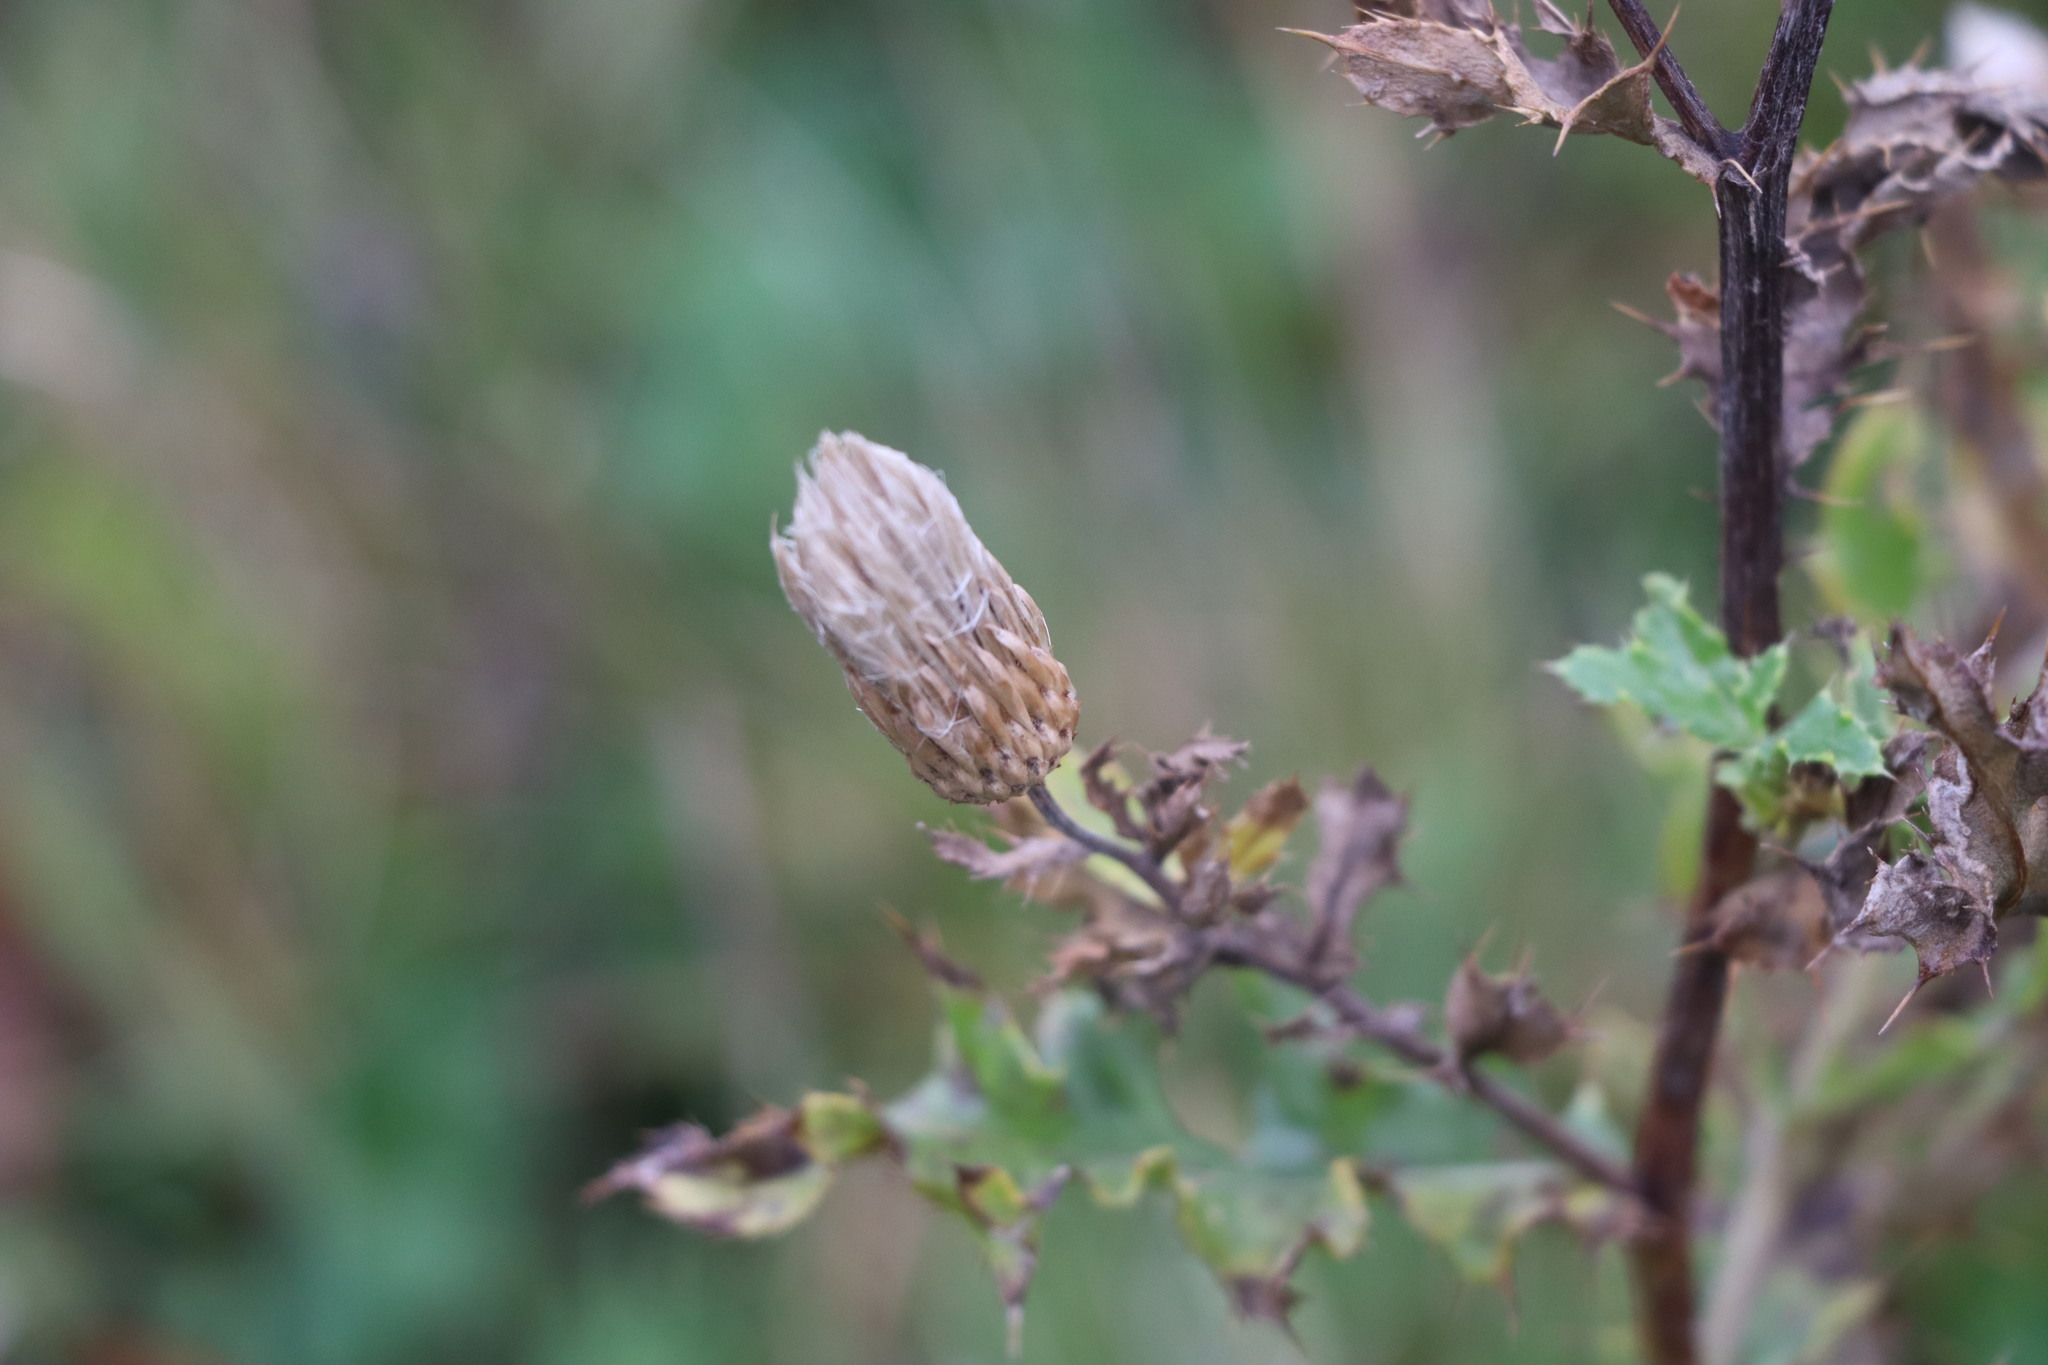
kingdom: Plantae
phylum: Tracheophyta
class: Magnoliopsida
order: Asterales
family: Asteraceae
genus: Cirsium
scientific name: Cirsium arvense
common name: Creeping thistle
